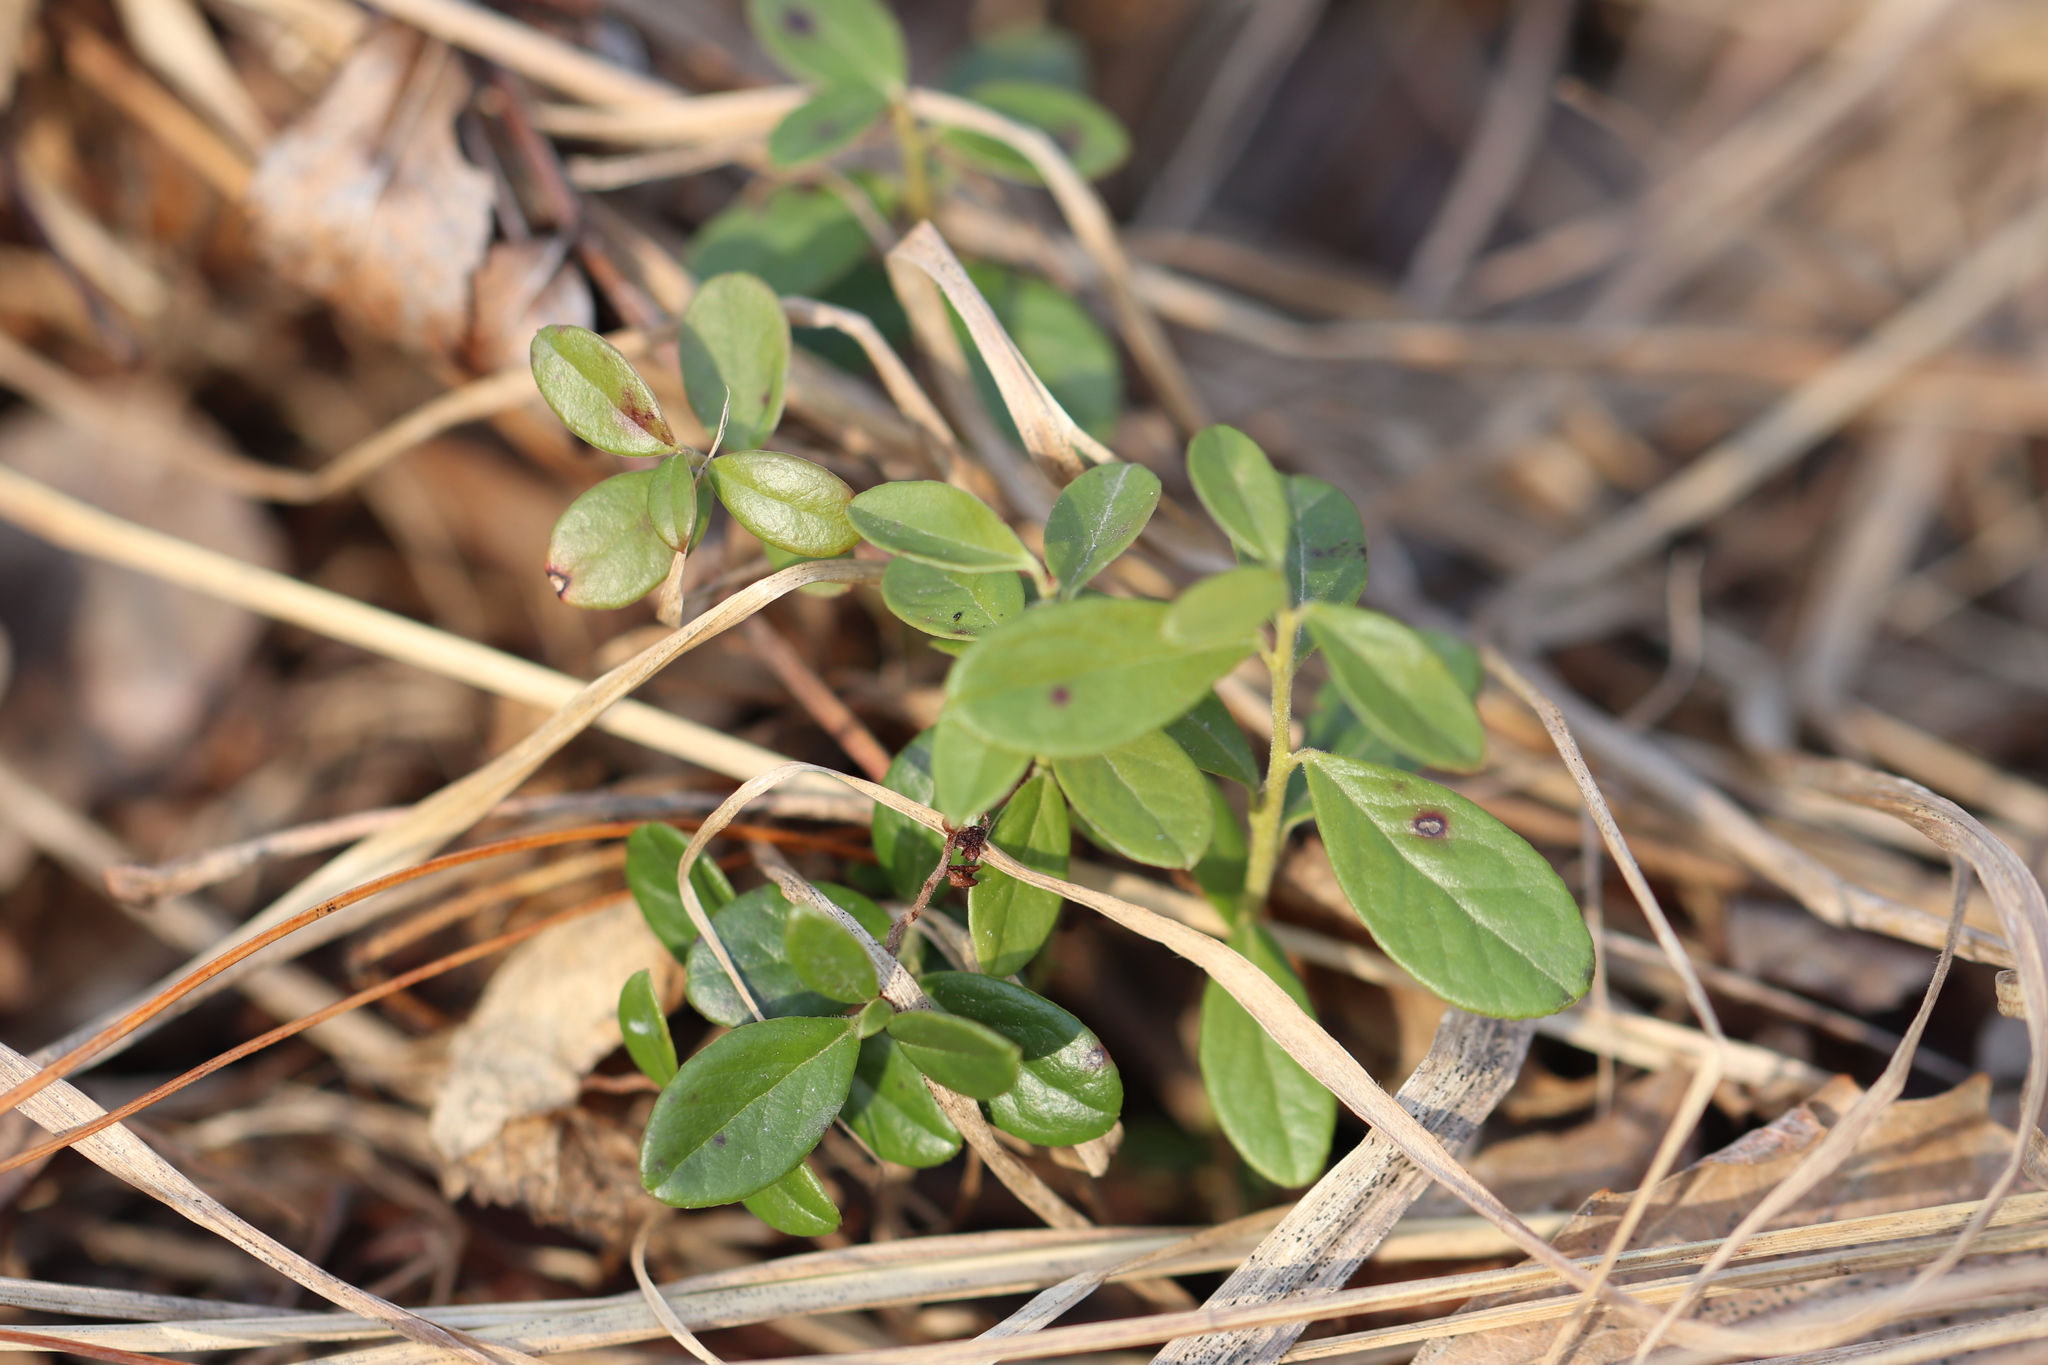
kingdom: Plantae
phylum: Tracheophyta
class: Magnoliopsida
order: Ericales
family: Ericaceae
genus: Vaccinium
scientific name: Vaccinium vitis-idaea
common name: Cowberry
